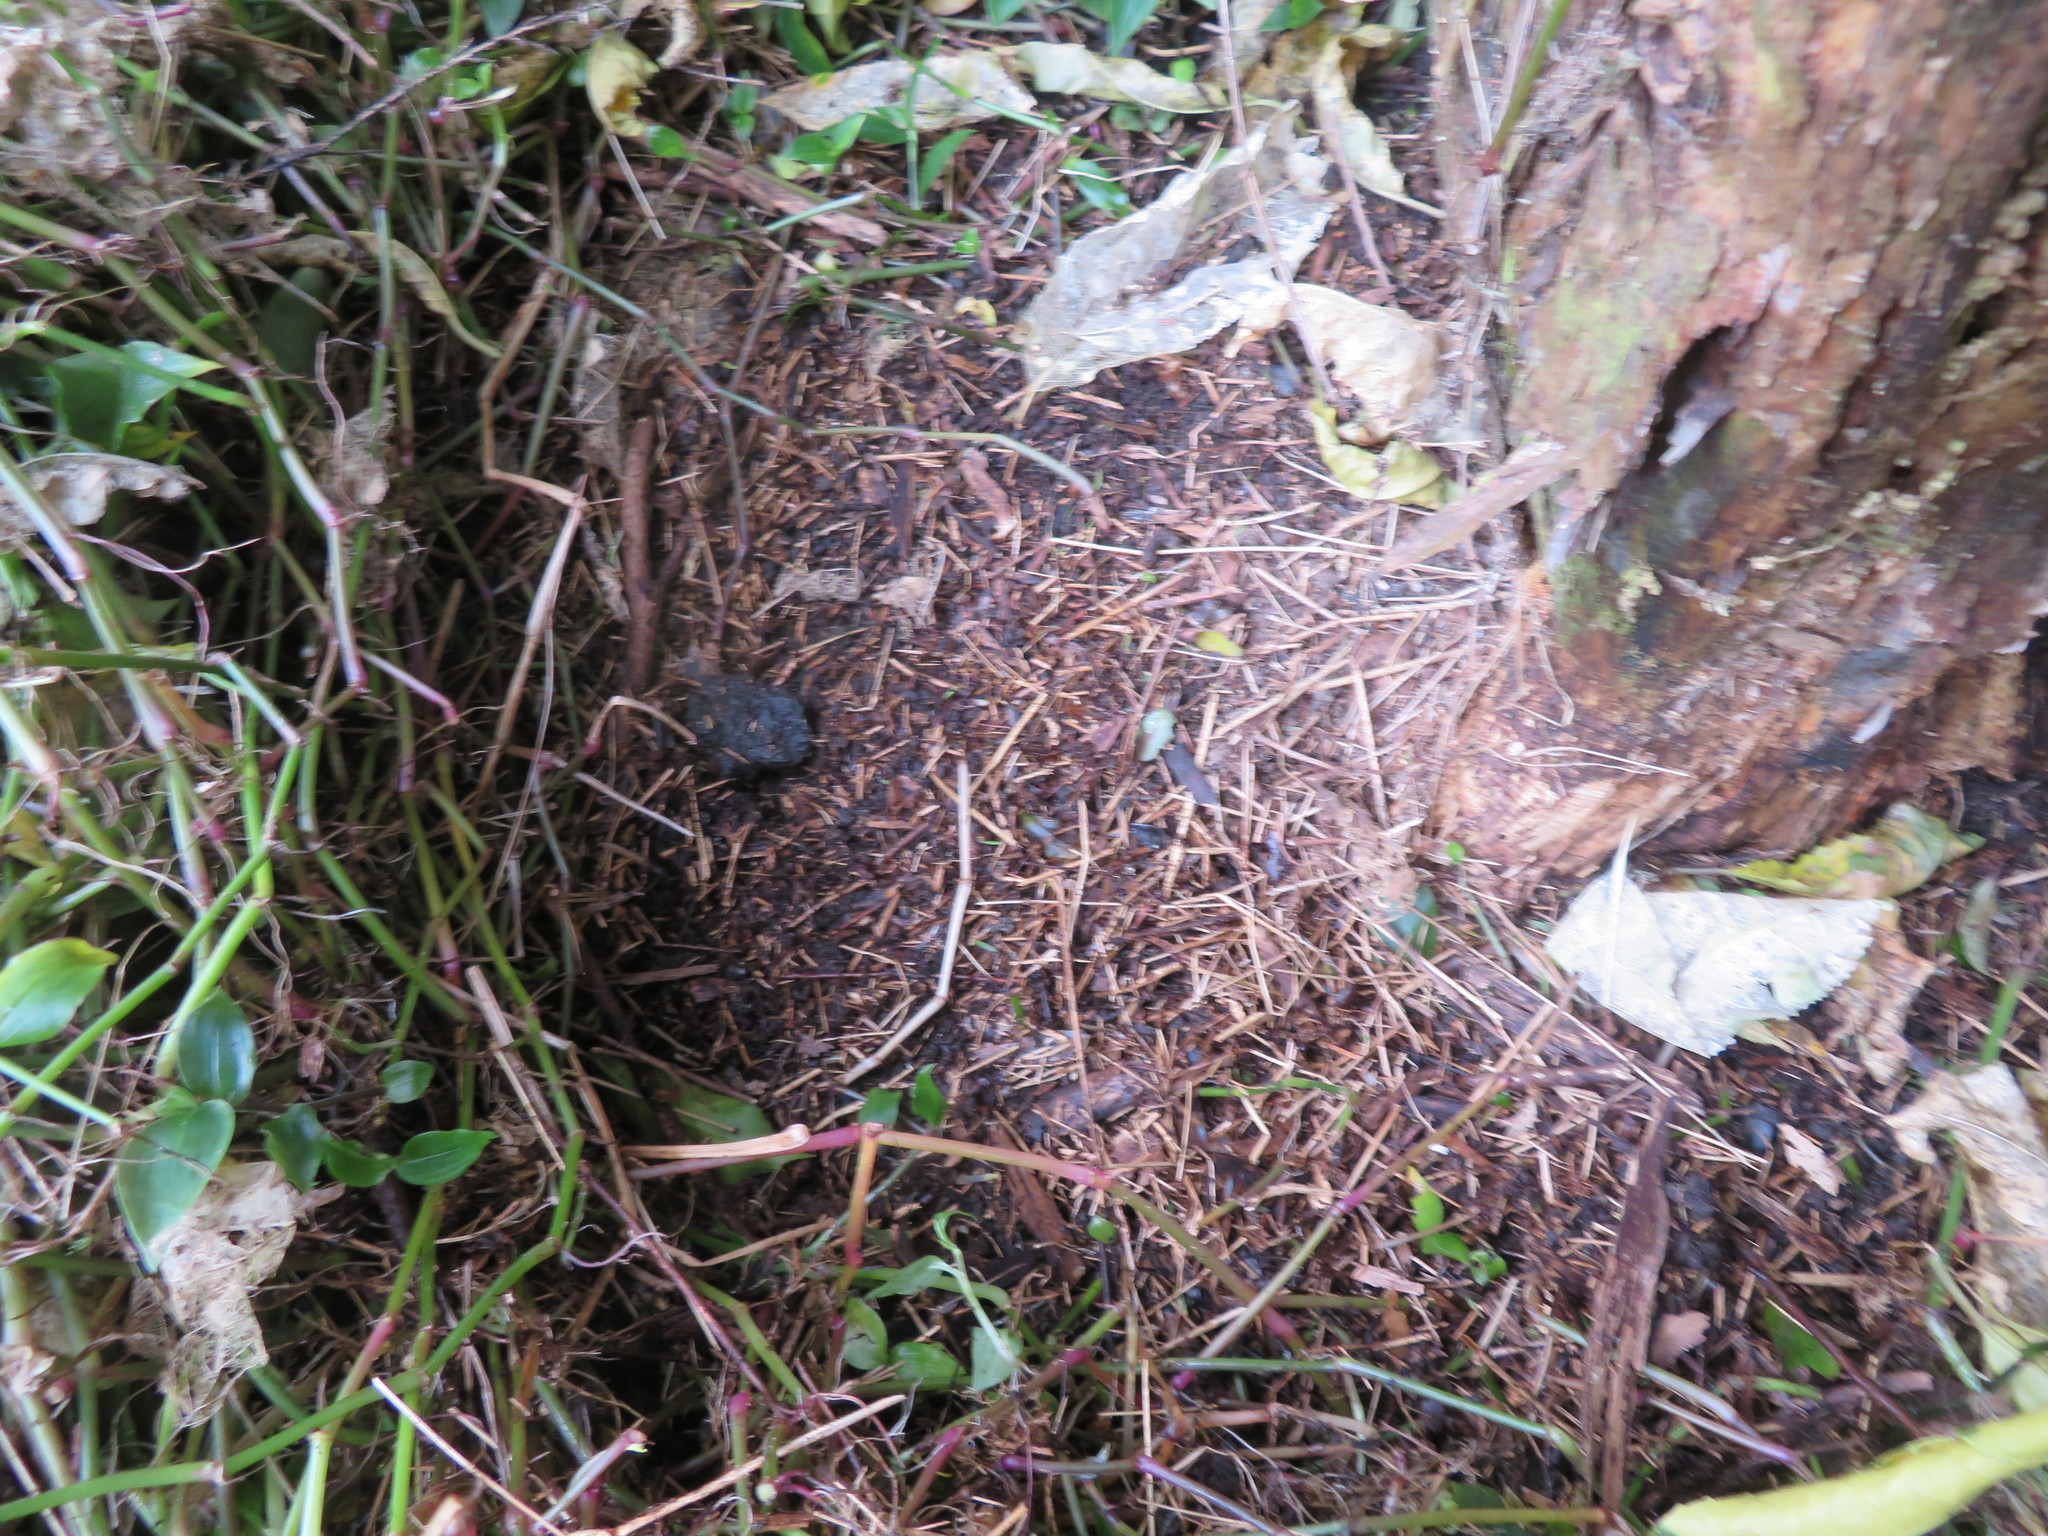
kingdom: Plantae
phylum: Tracheophyta
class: Liliopsida
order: Commelinales
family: Commelinaceae
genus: Tradescantia
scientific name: Tradescantia fluminensis
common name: Wandering-jew
